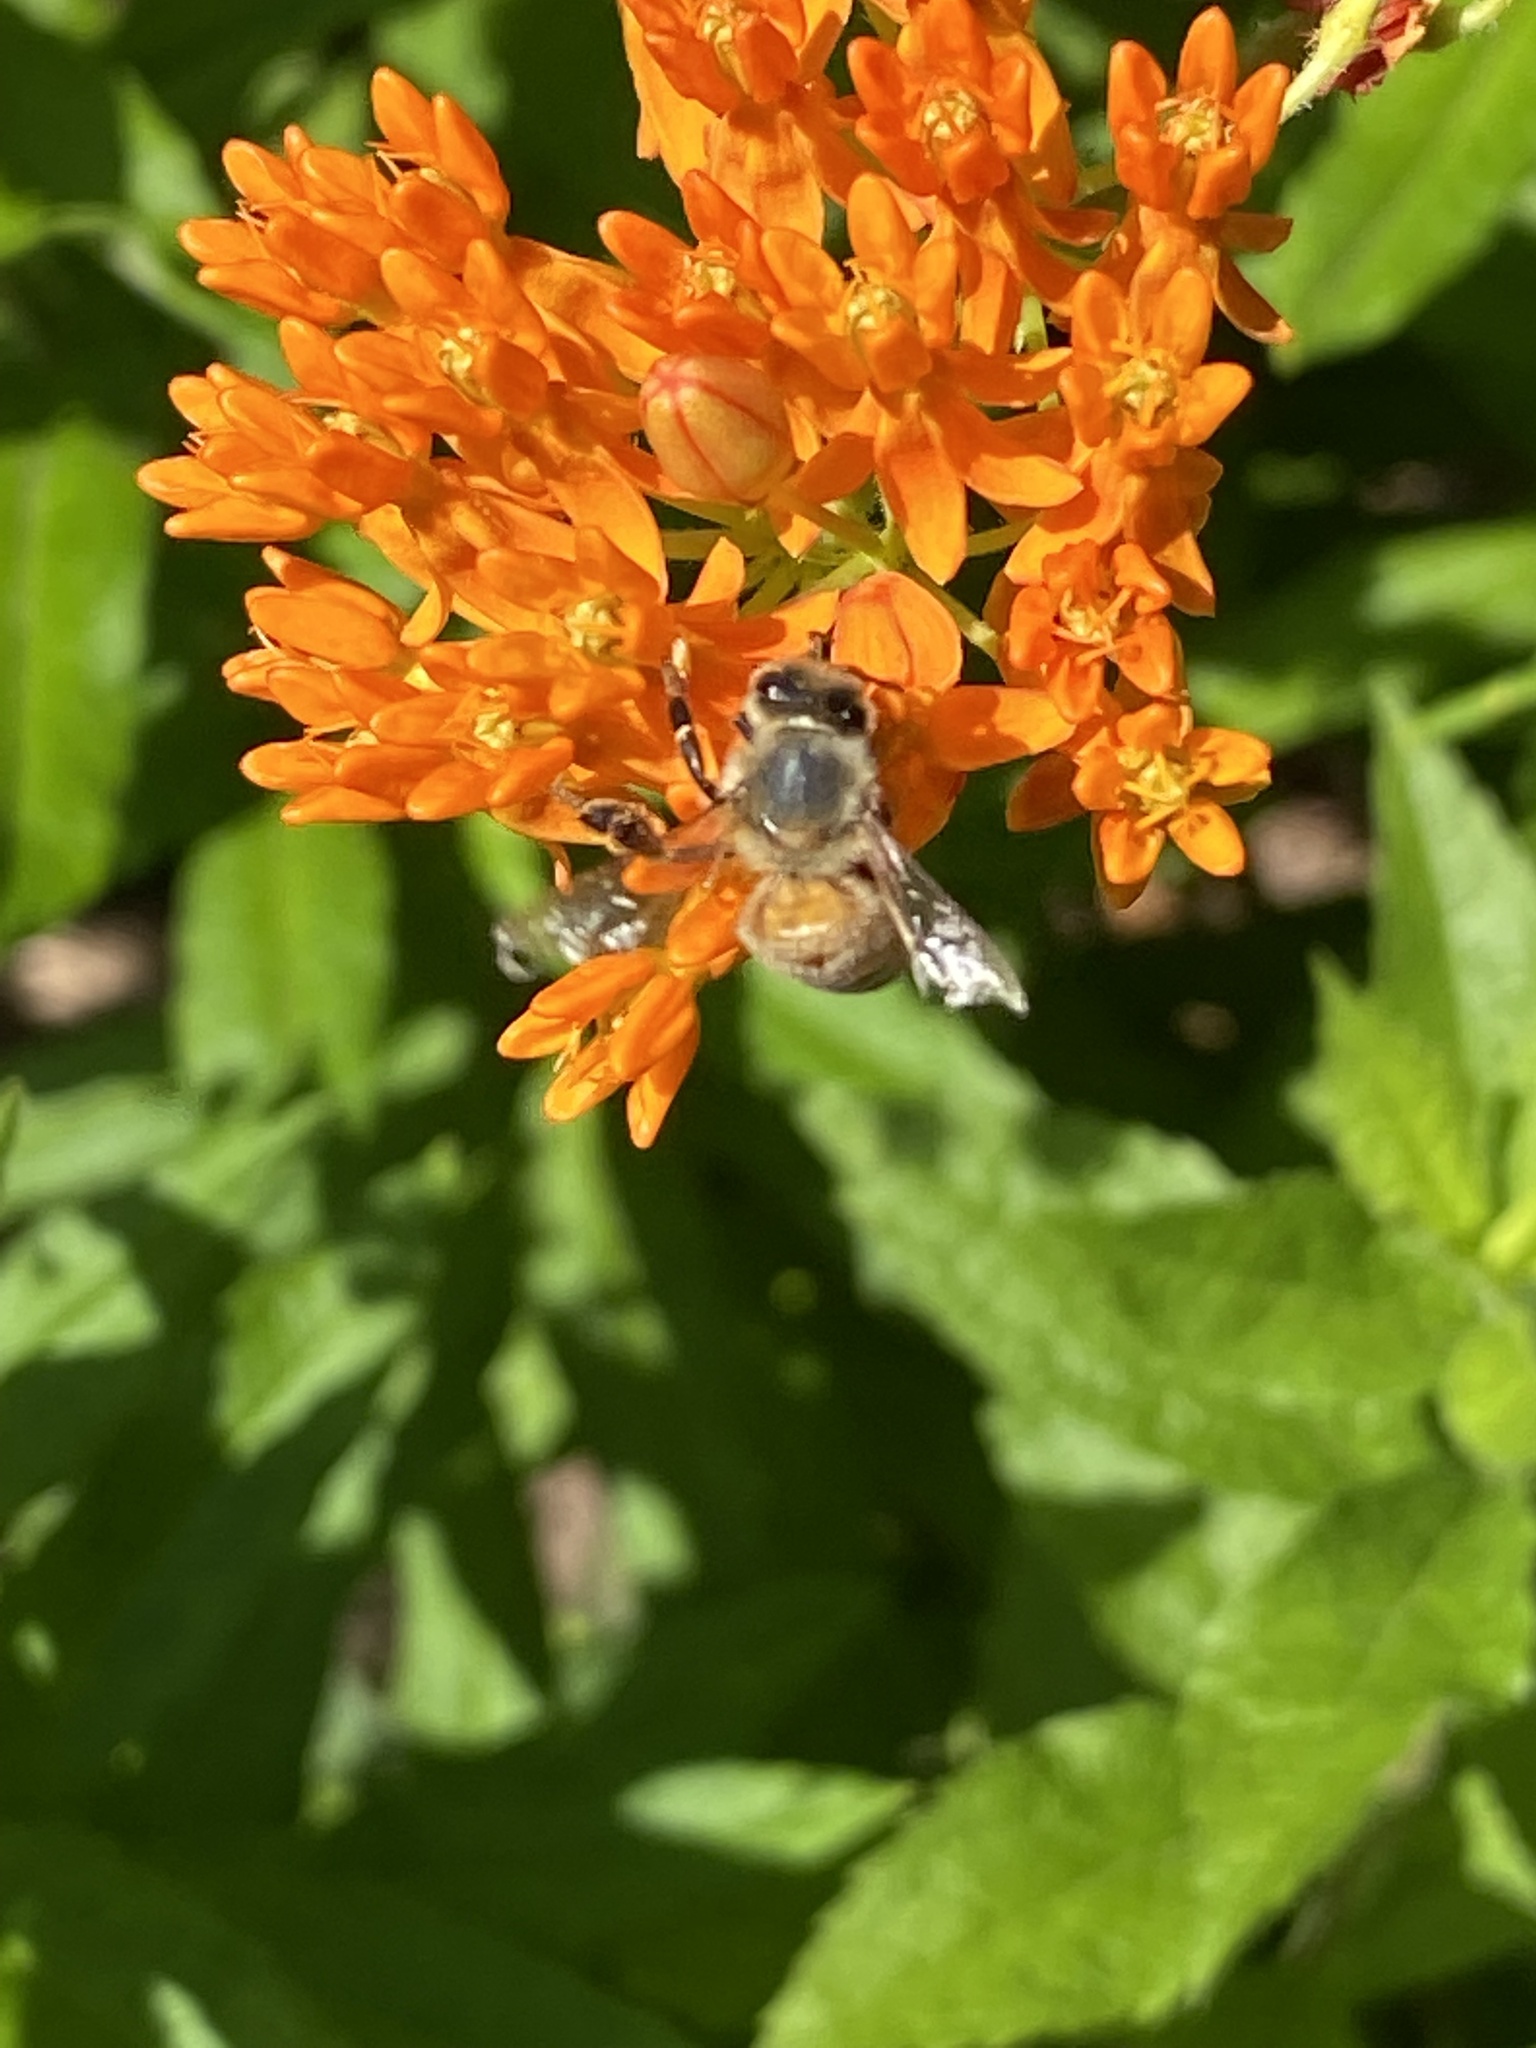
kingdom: Animalia
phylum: Arthropoda
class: Insecta
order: Hymenoptera
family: Apidae
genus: Apis
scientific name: Apis mellifera
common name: Honey bee
